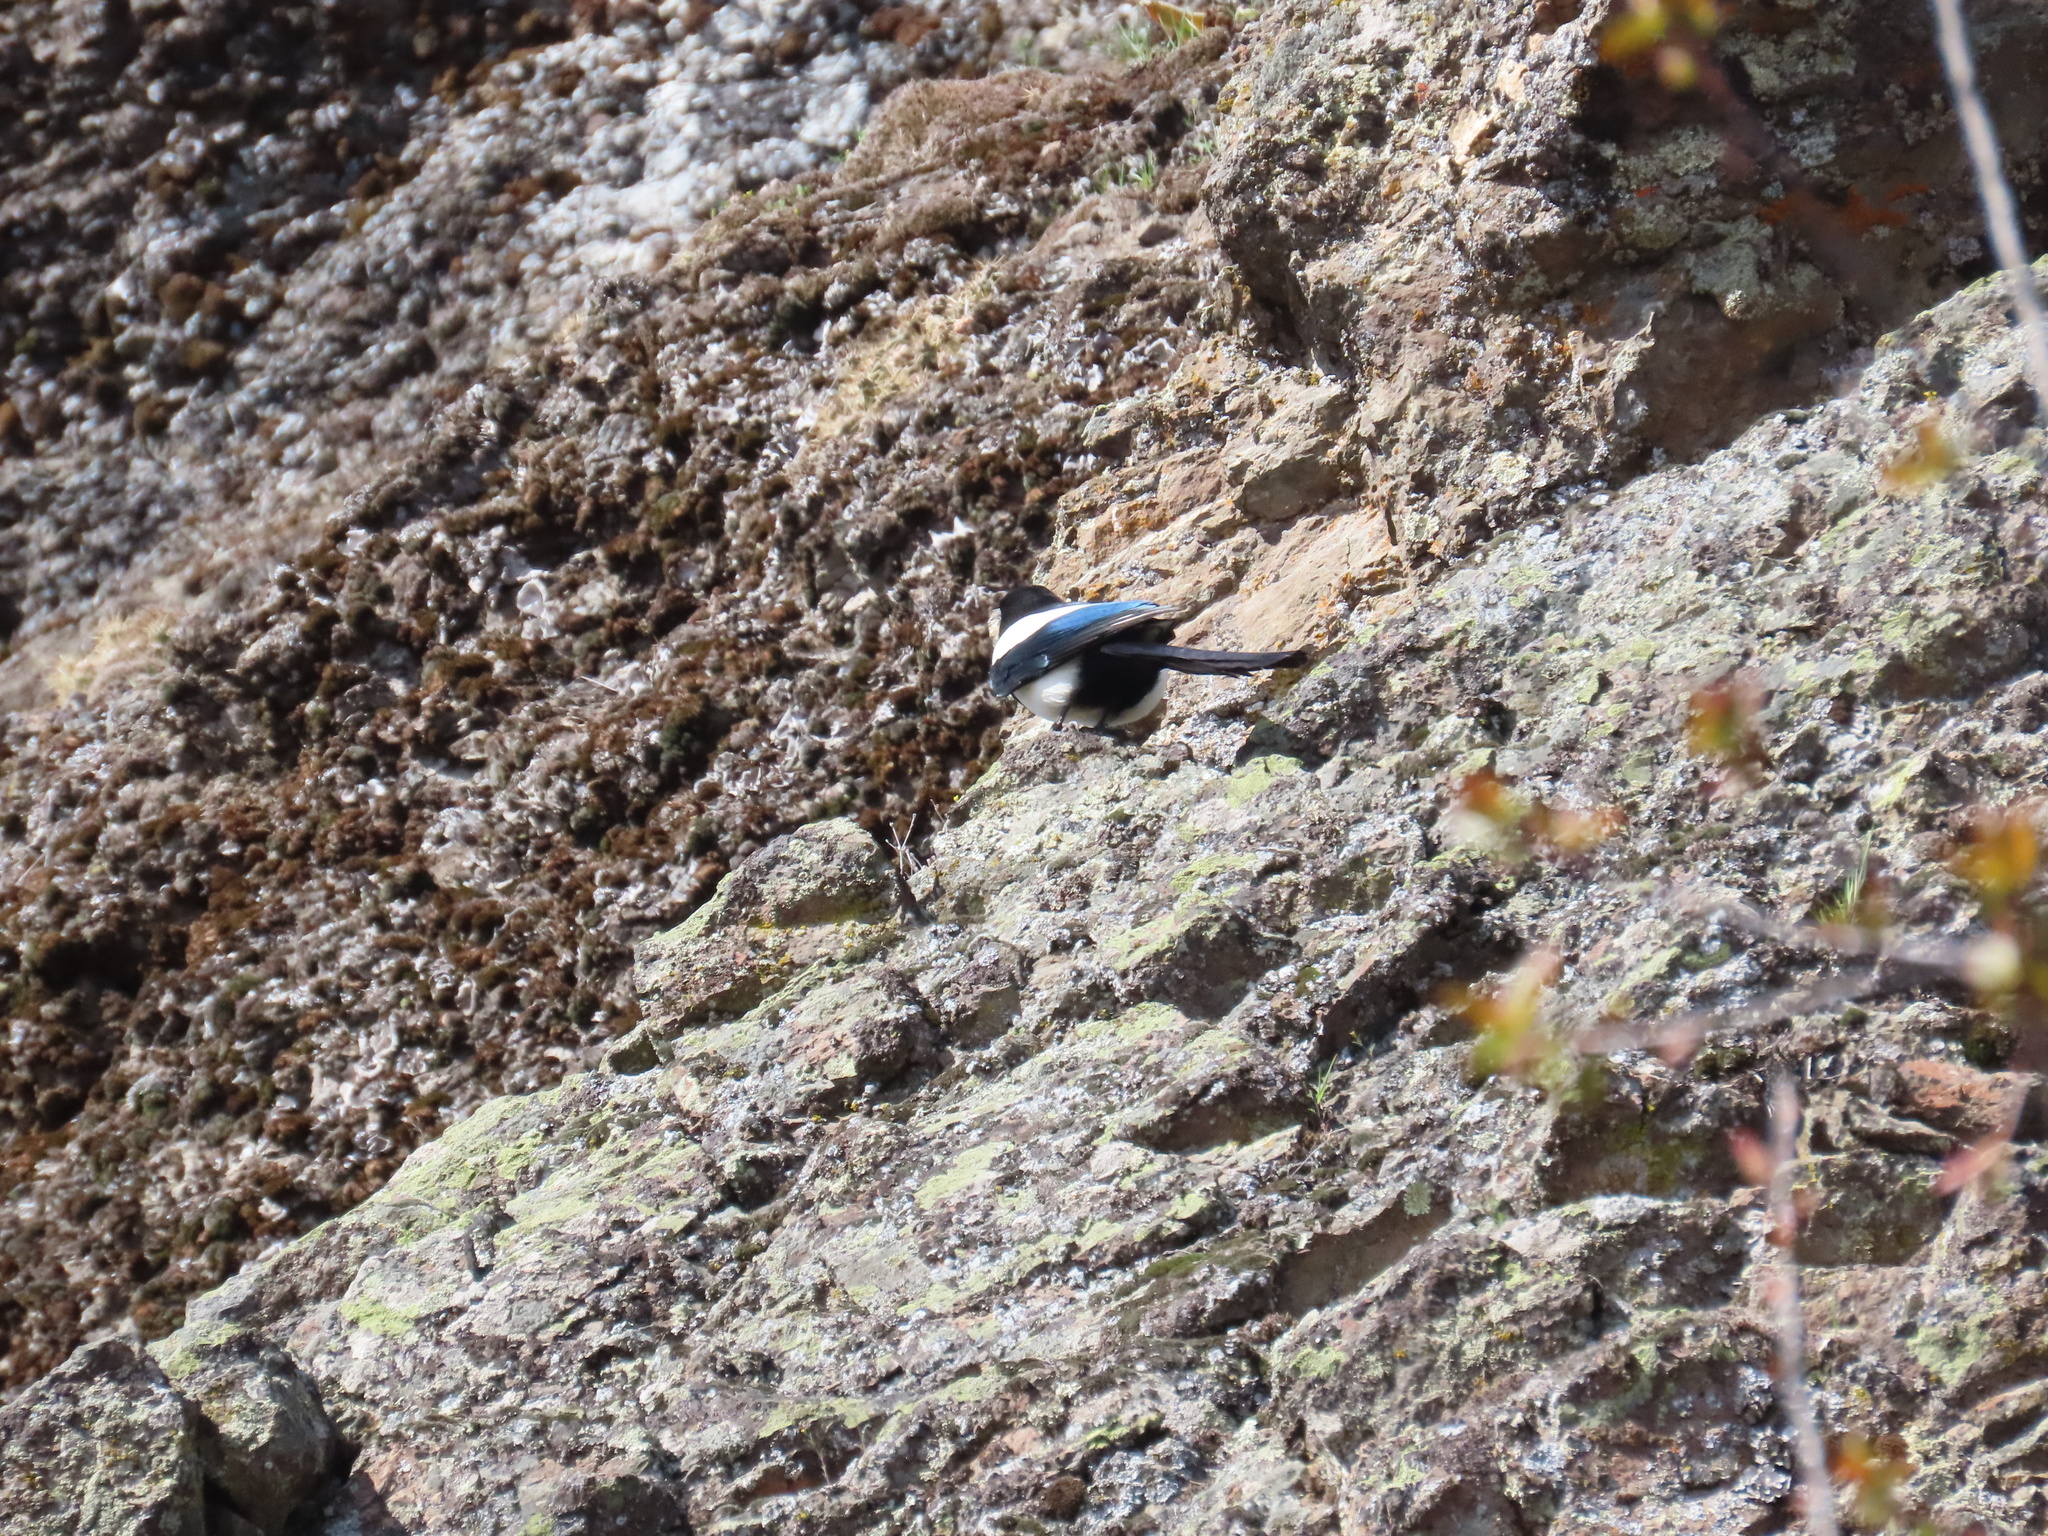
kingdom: Animalia
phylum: Chordata
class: Aves
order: Passeriformes
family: Corvidae
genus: Pica
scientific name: Pica hudsonia
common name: Black-billed magpie
